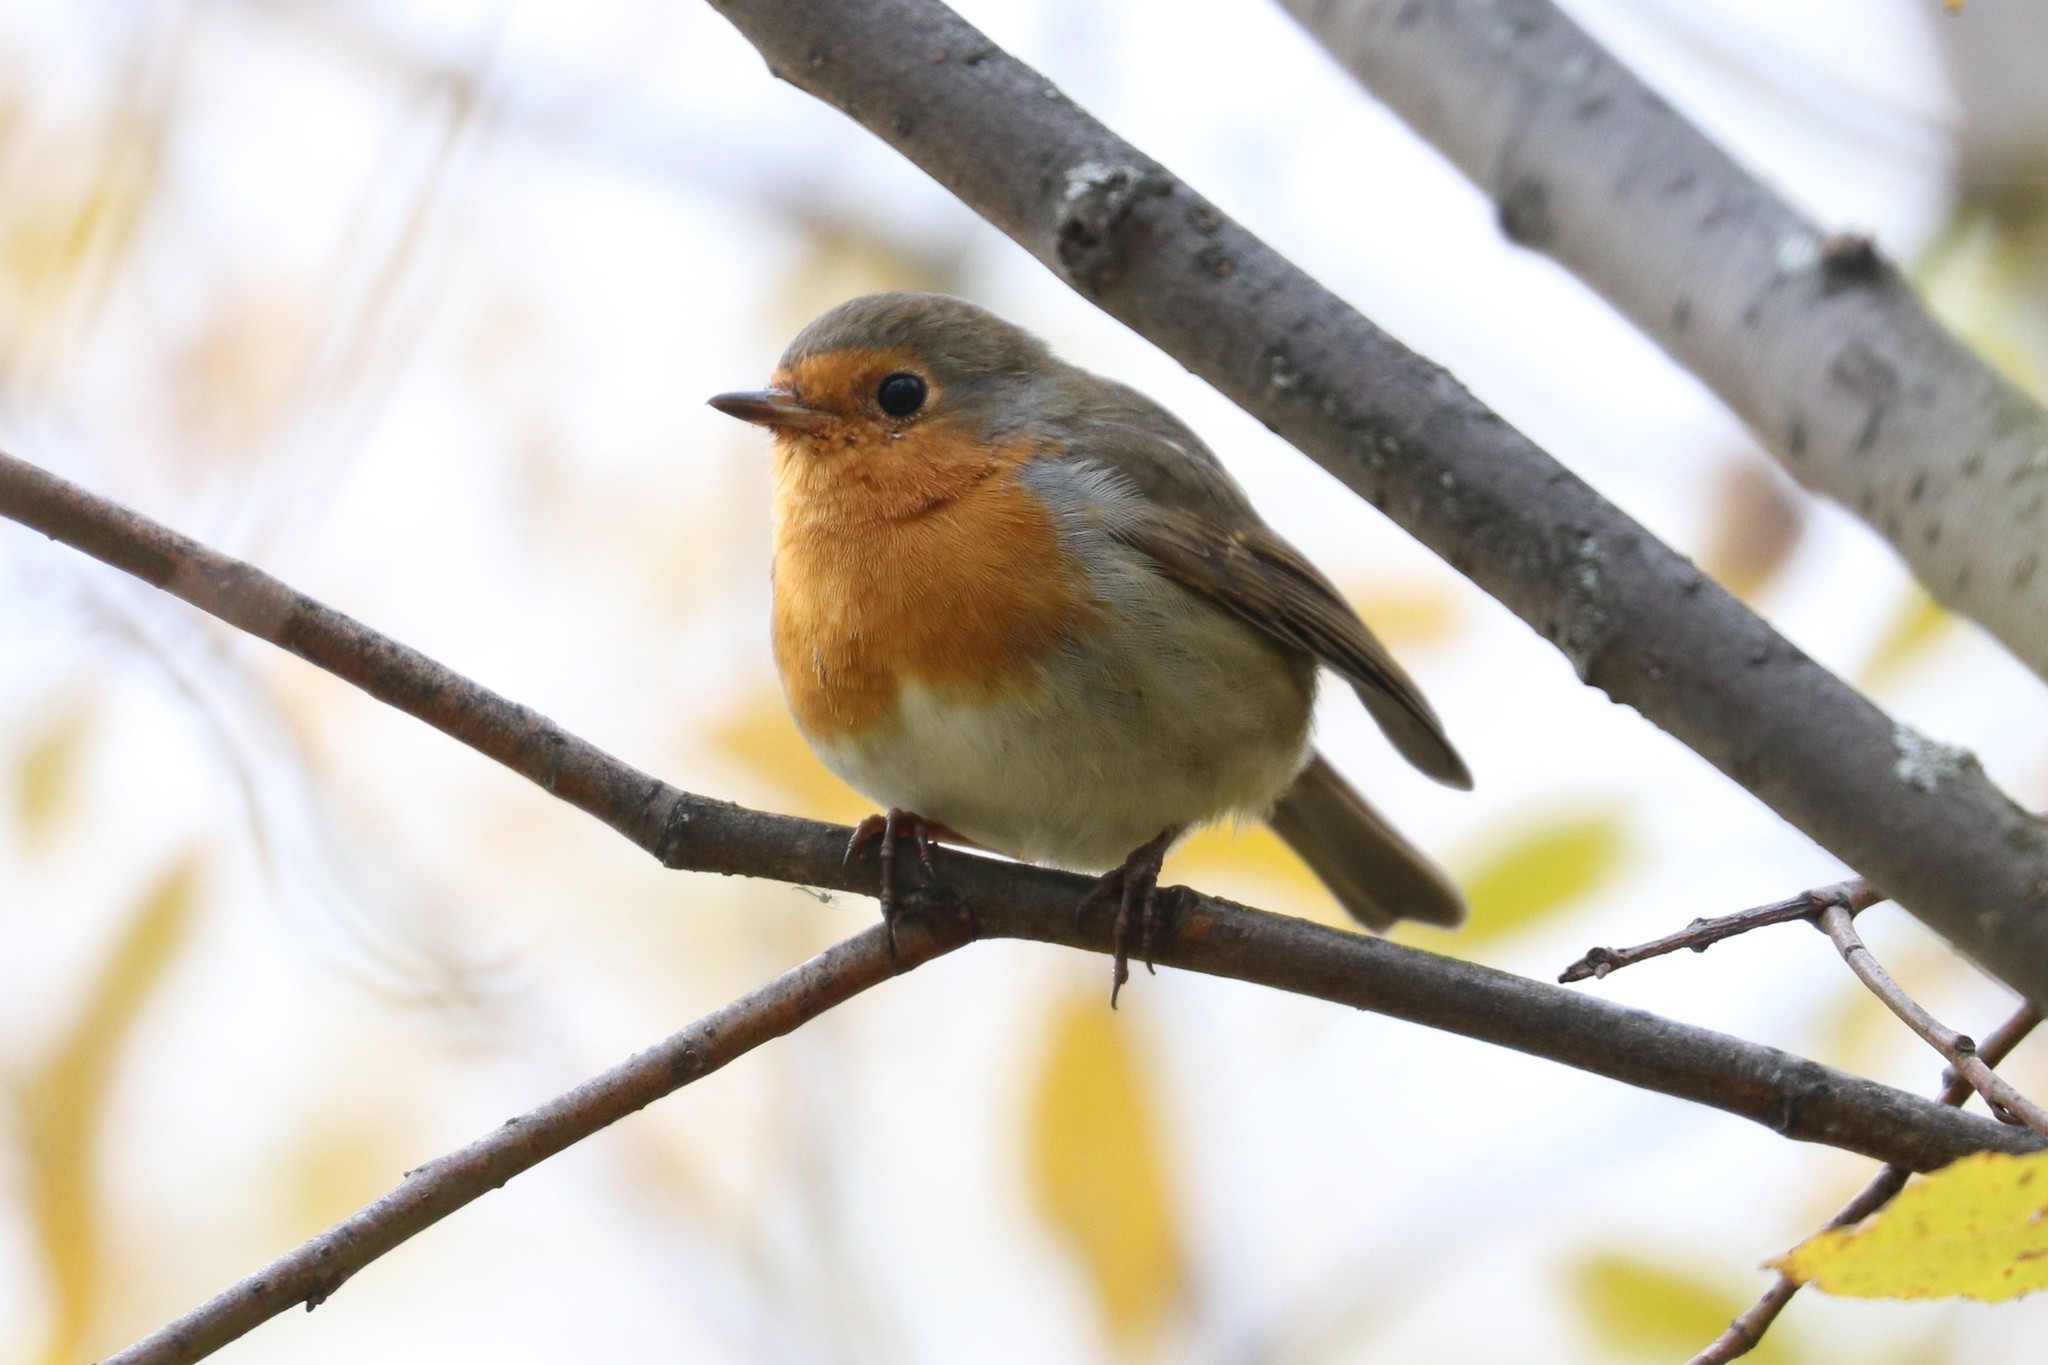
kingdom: Animalia
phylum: Chordata
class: Aves
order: Passeriformes
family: Muscicapidae
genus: Erithacus
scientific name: Erithacus rubecula
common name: European robin
